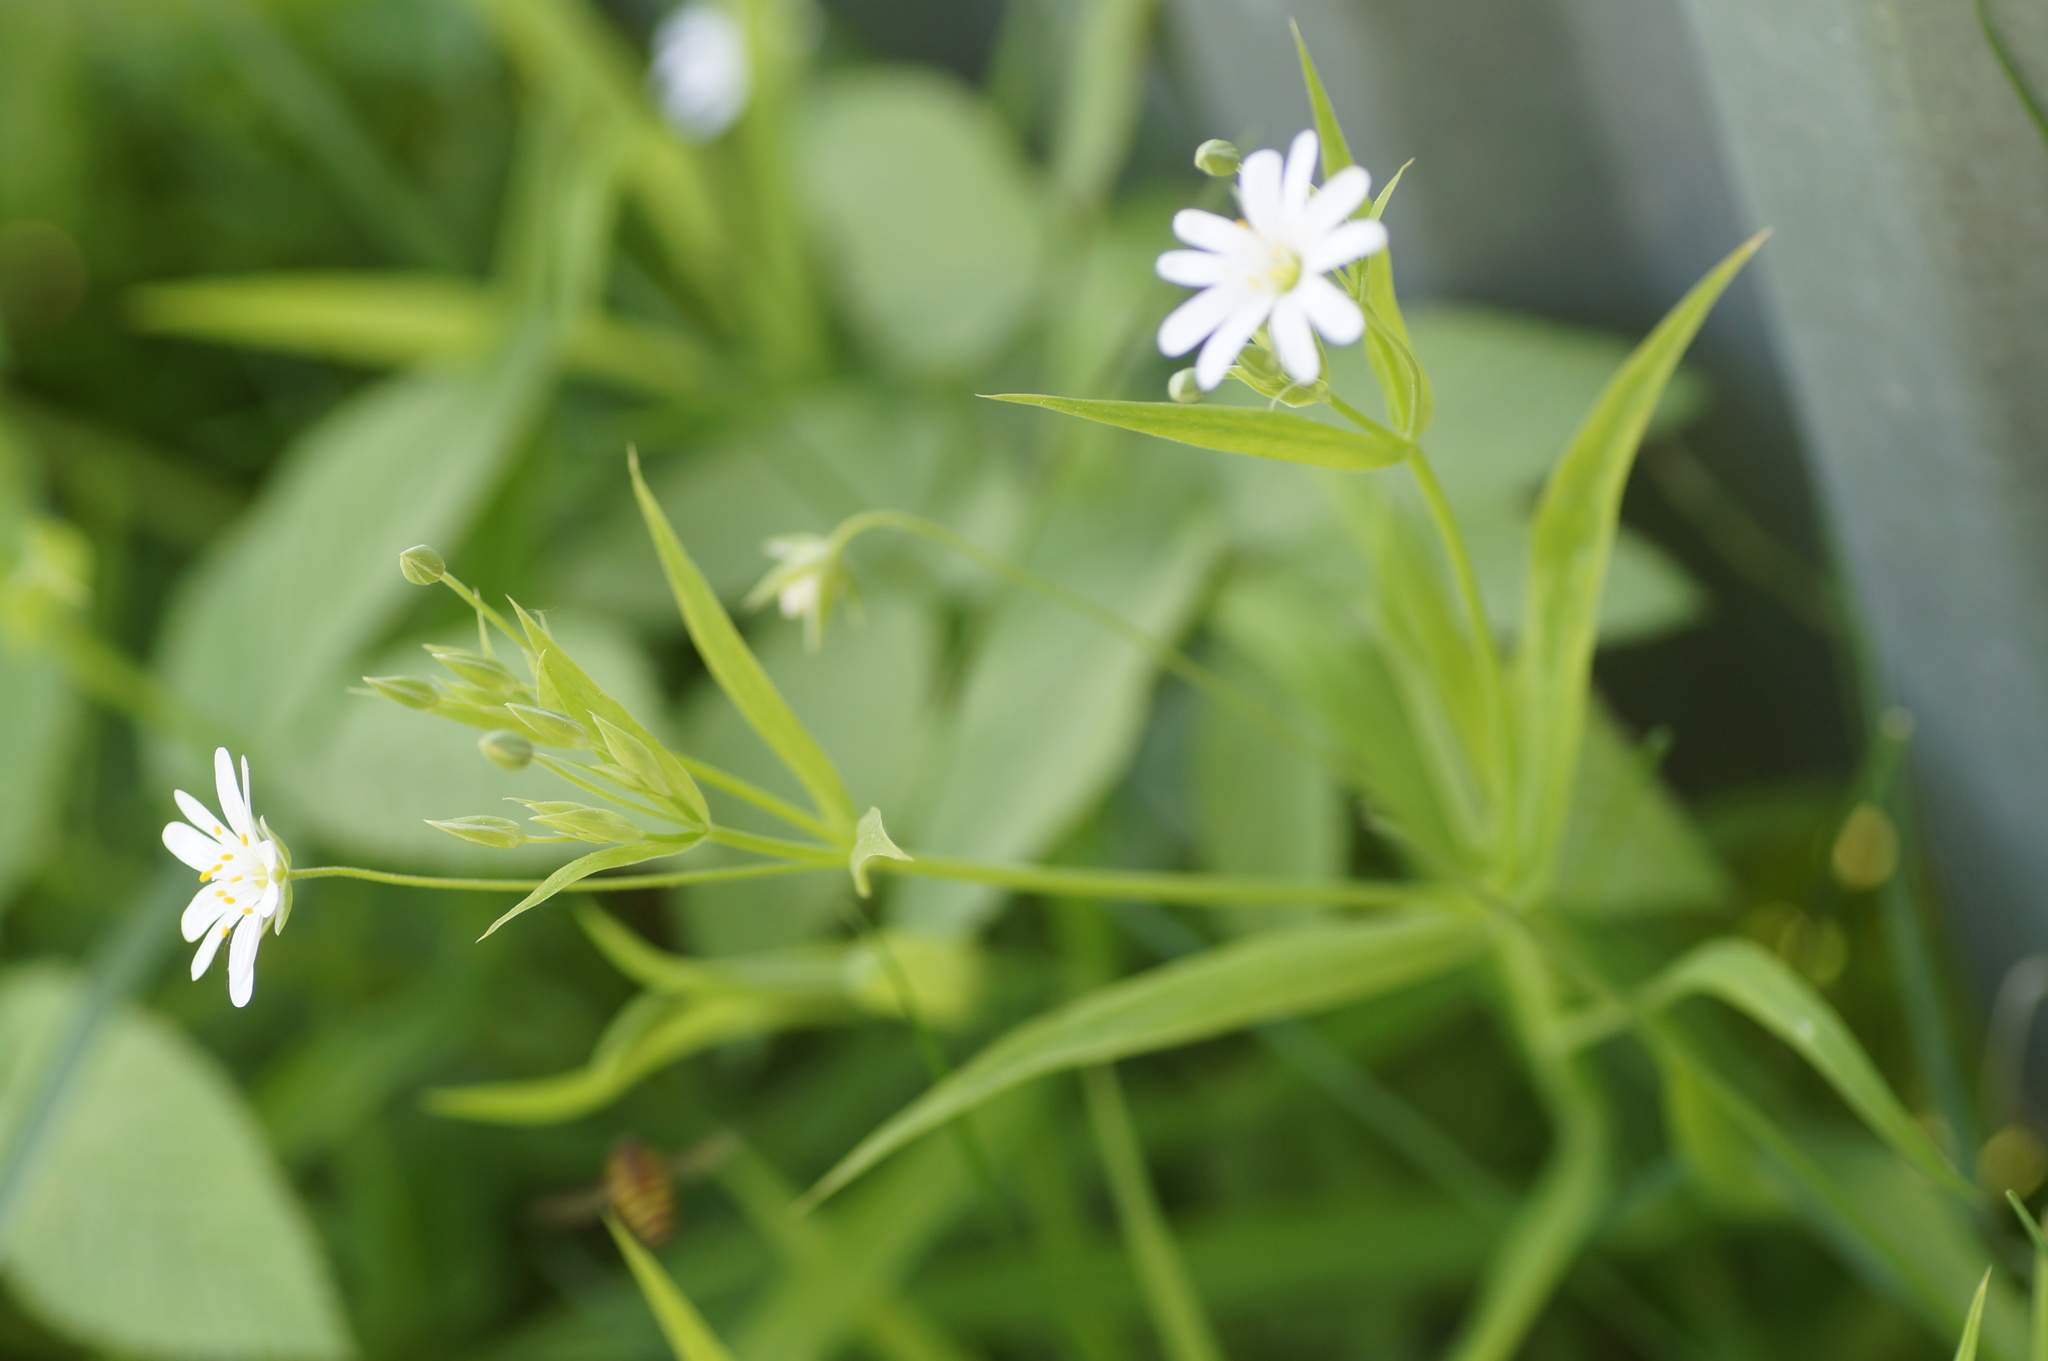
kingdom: Plantae
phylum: Tracheophyta
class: Magnoliopsida
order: Caryophyllales
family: Caryophyllaceae
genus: Rabelera
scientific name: Rabelera holostea
